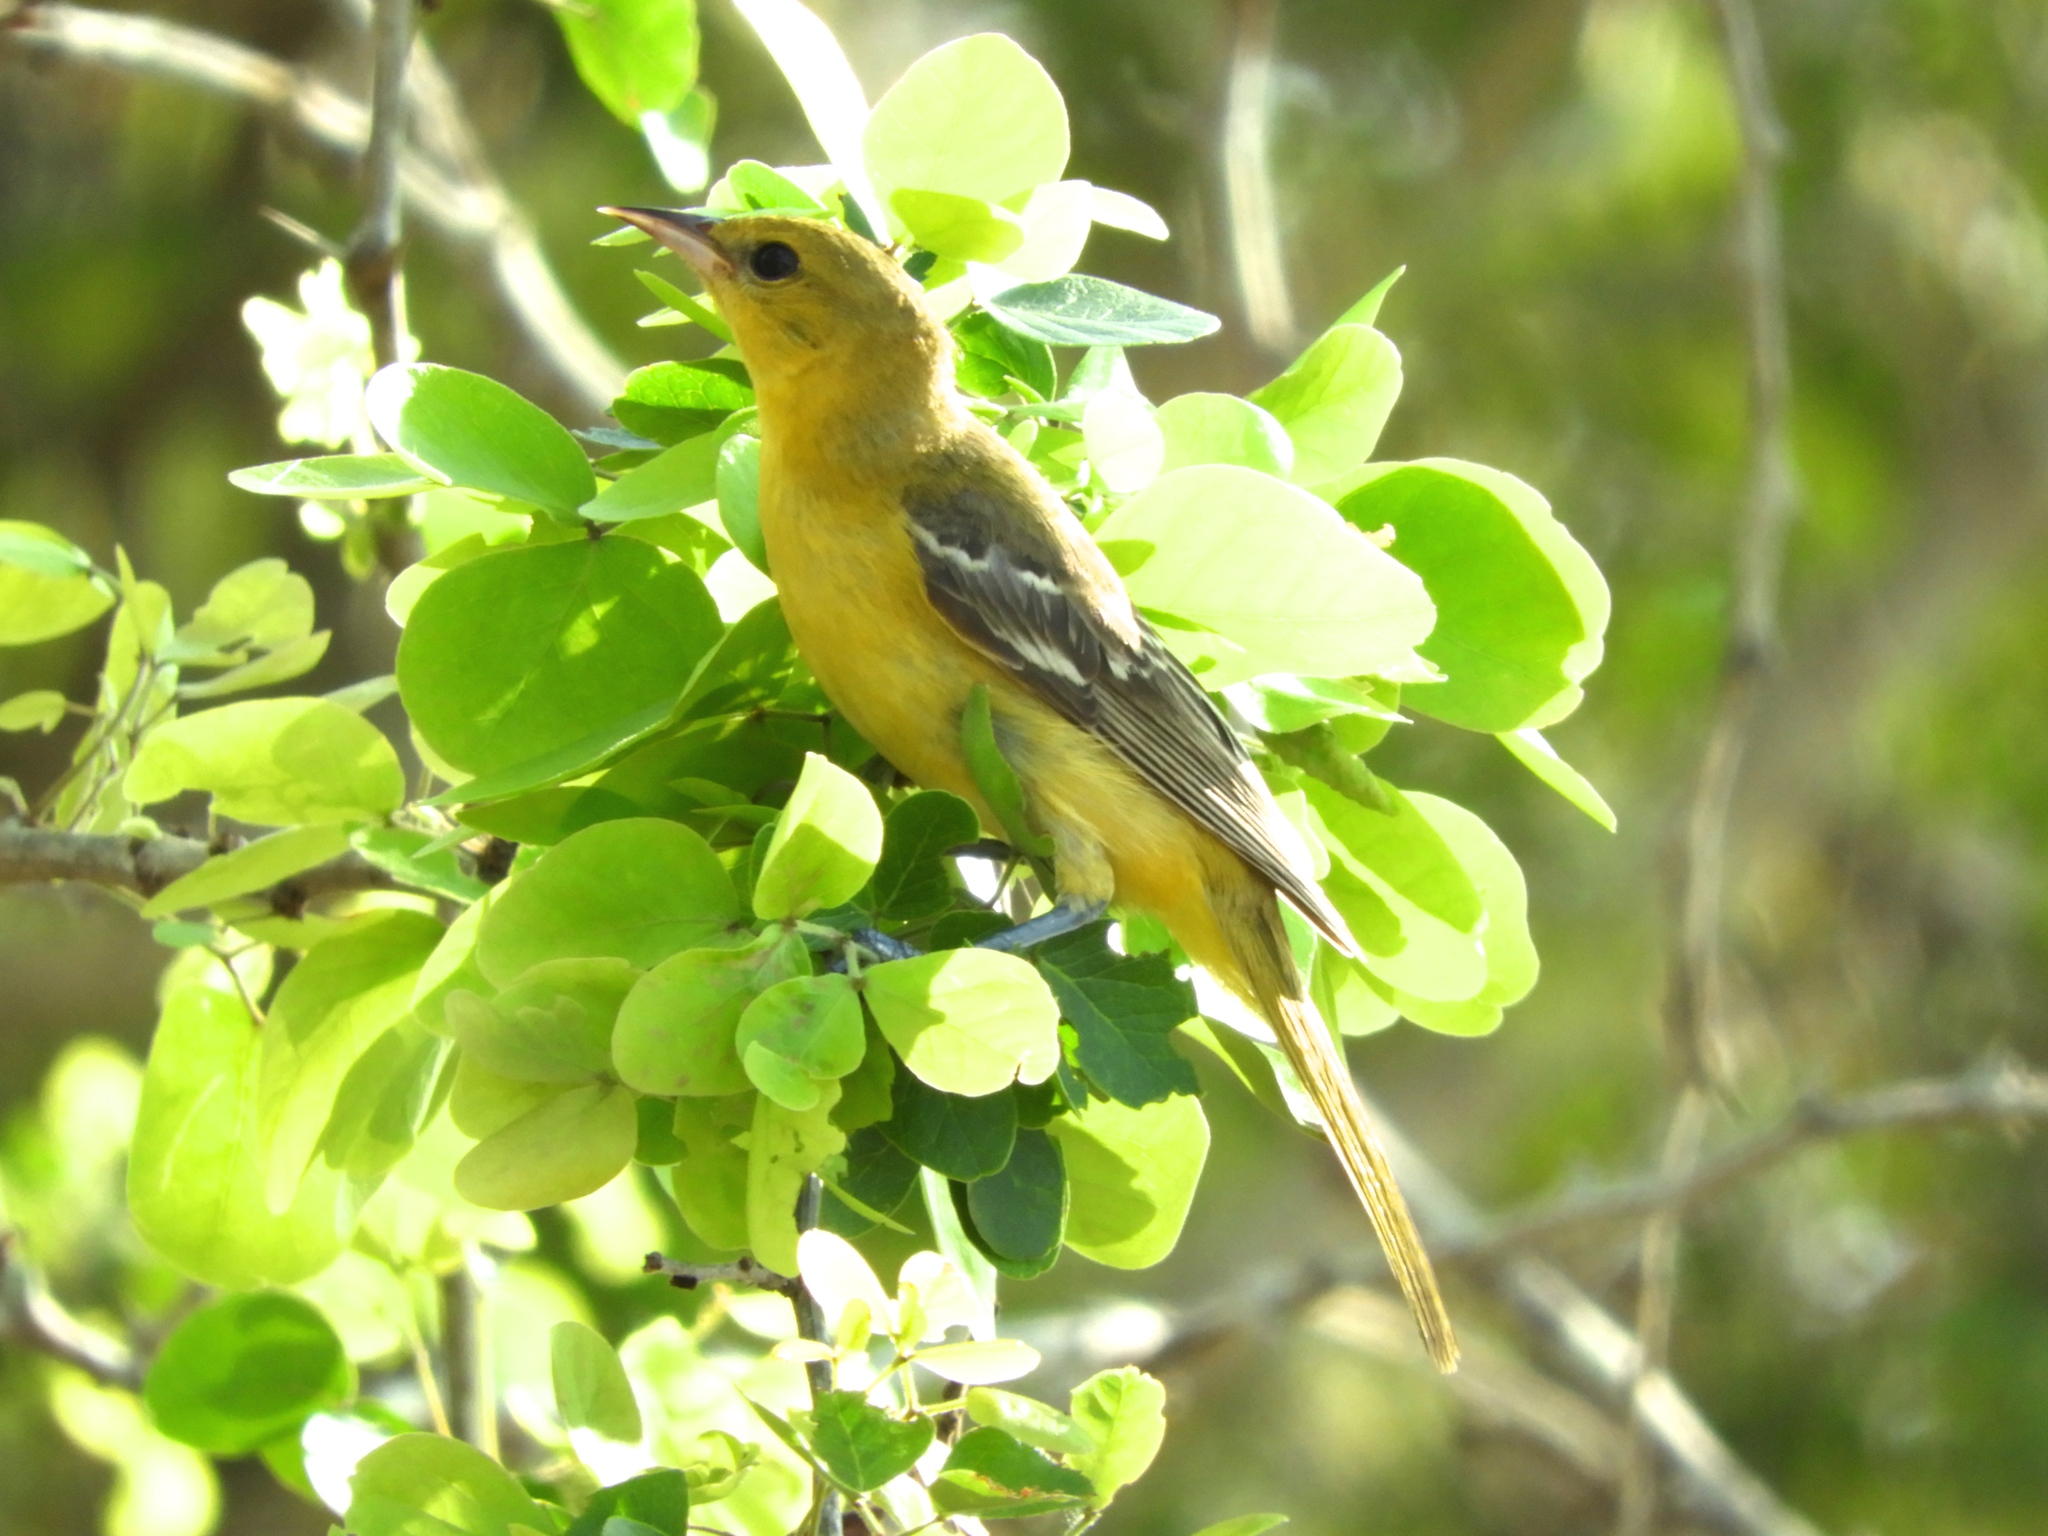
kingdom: Animalia
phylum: Chordata
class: Aves
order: Passeriformes
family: Icteridae
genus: Icterus
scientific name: Icterus spurius
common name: Orchard oriole
